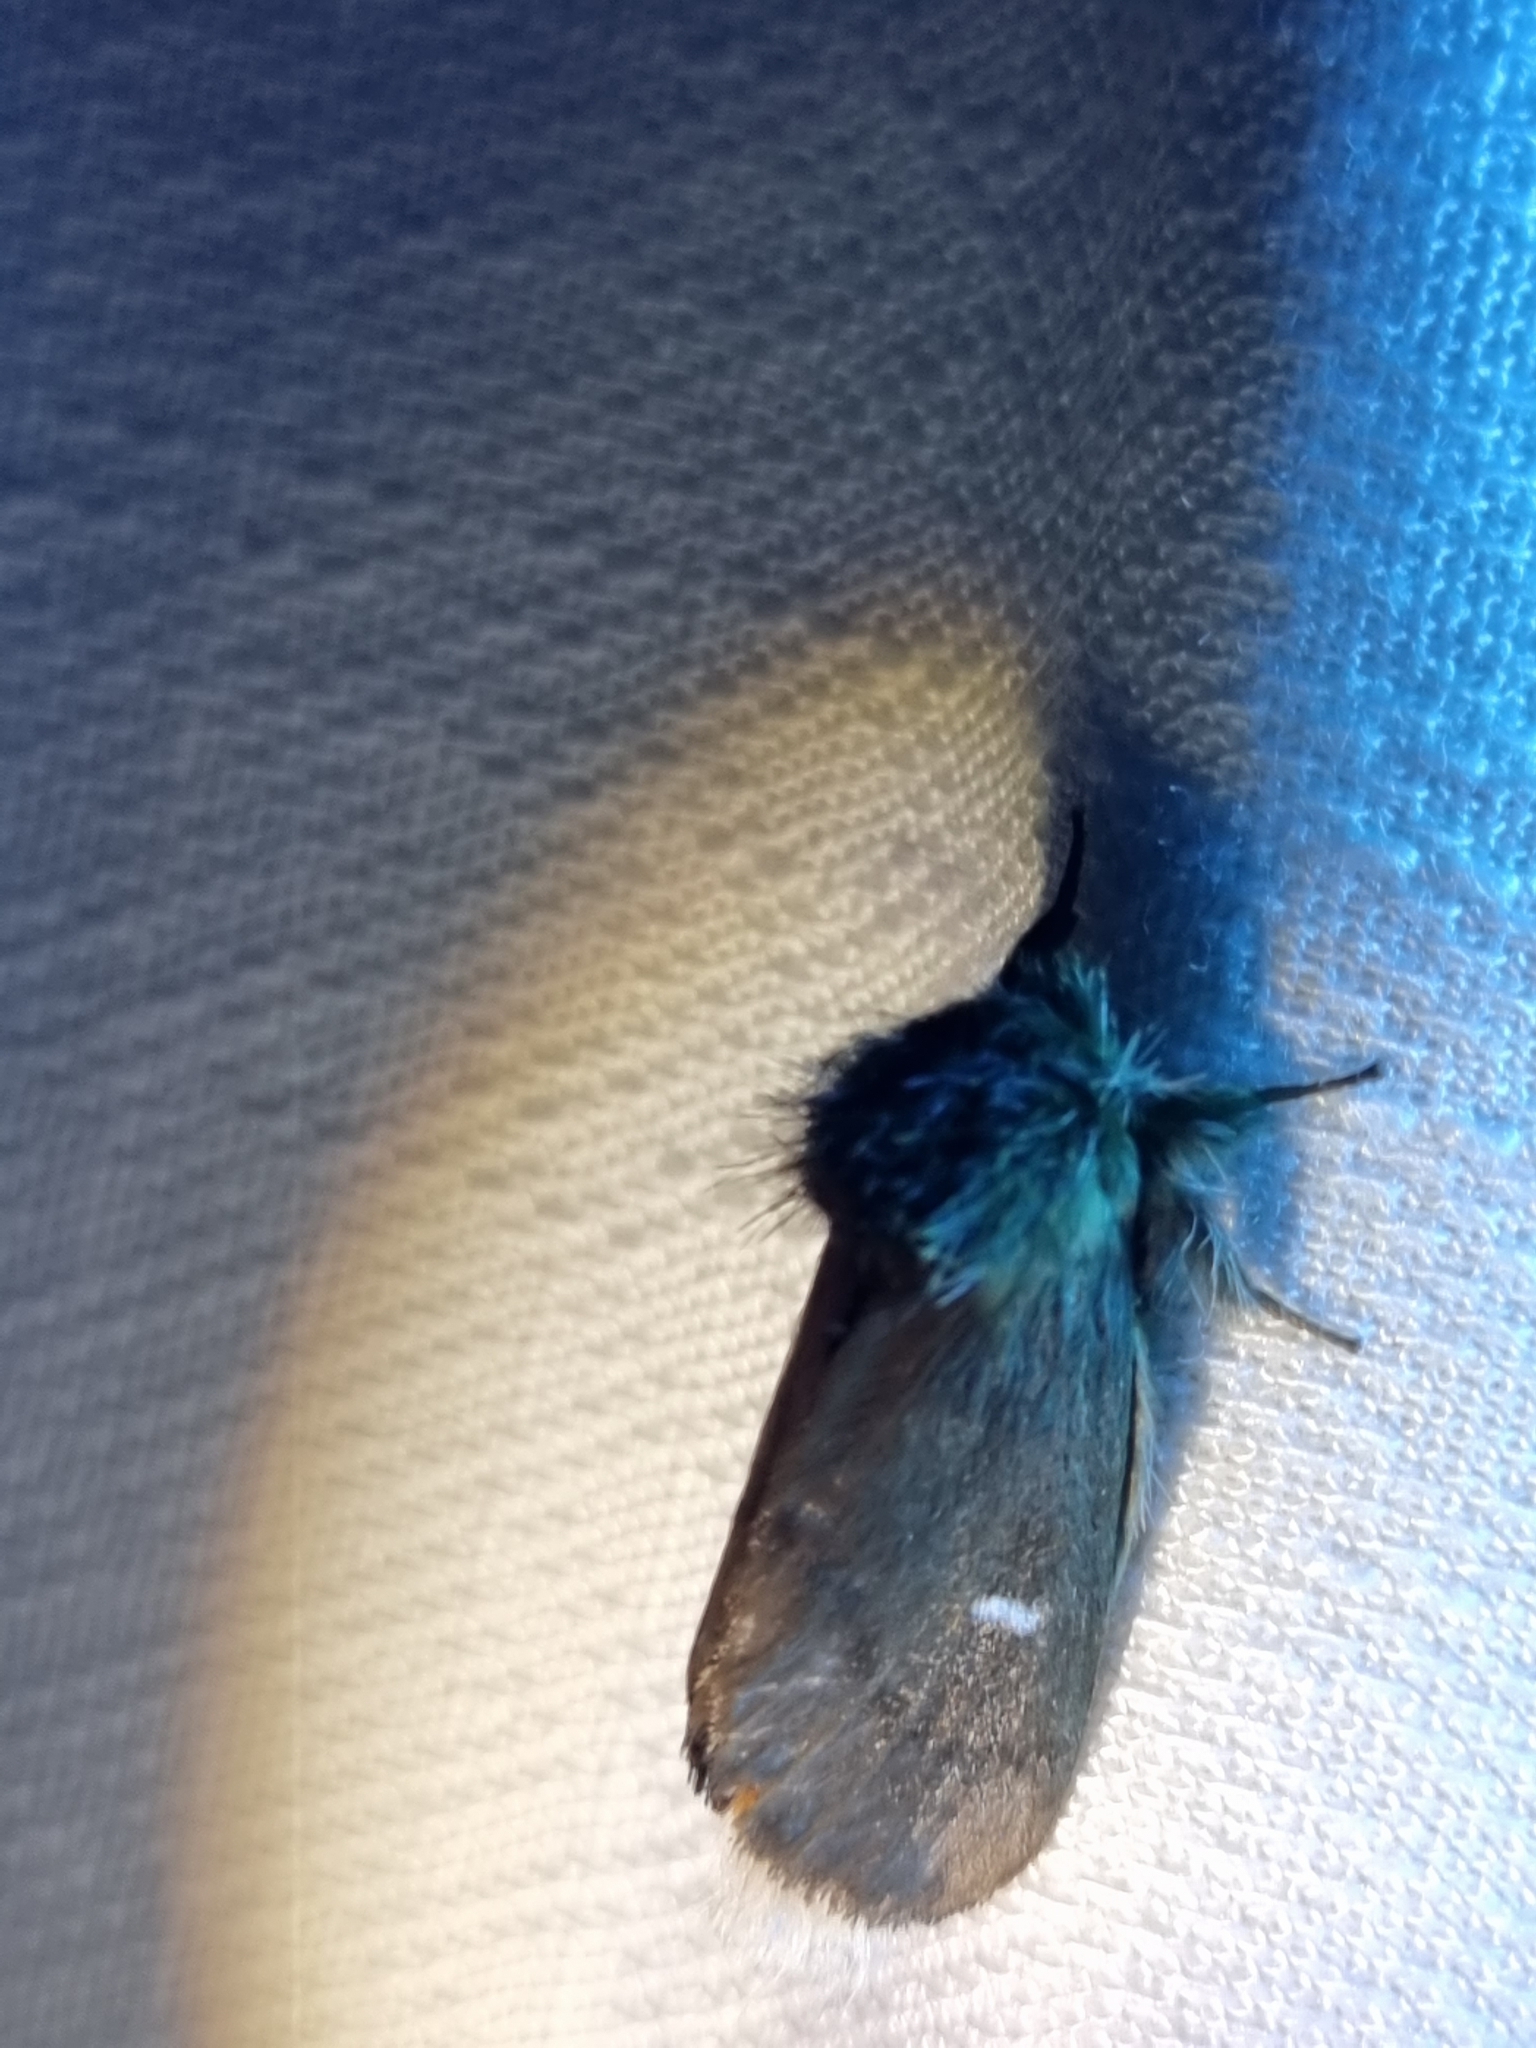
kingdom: Animalia
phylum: Arthropoda
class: Insecta
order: Lepidoptera
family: Notodontidae
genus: Ochrogaster
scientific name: Ochrogaster lunifer
